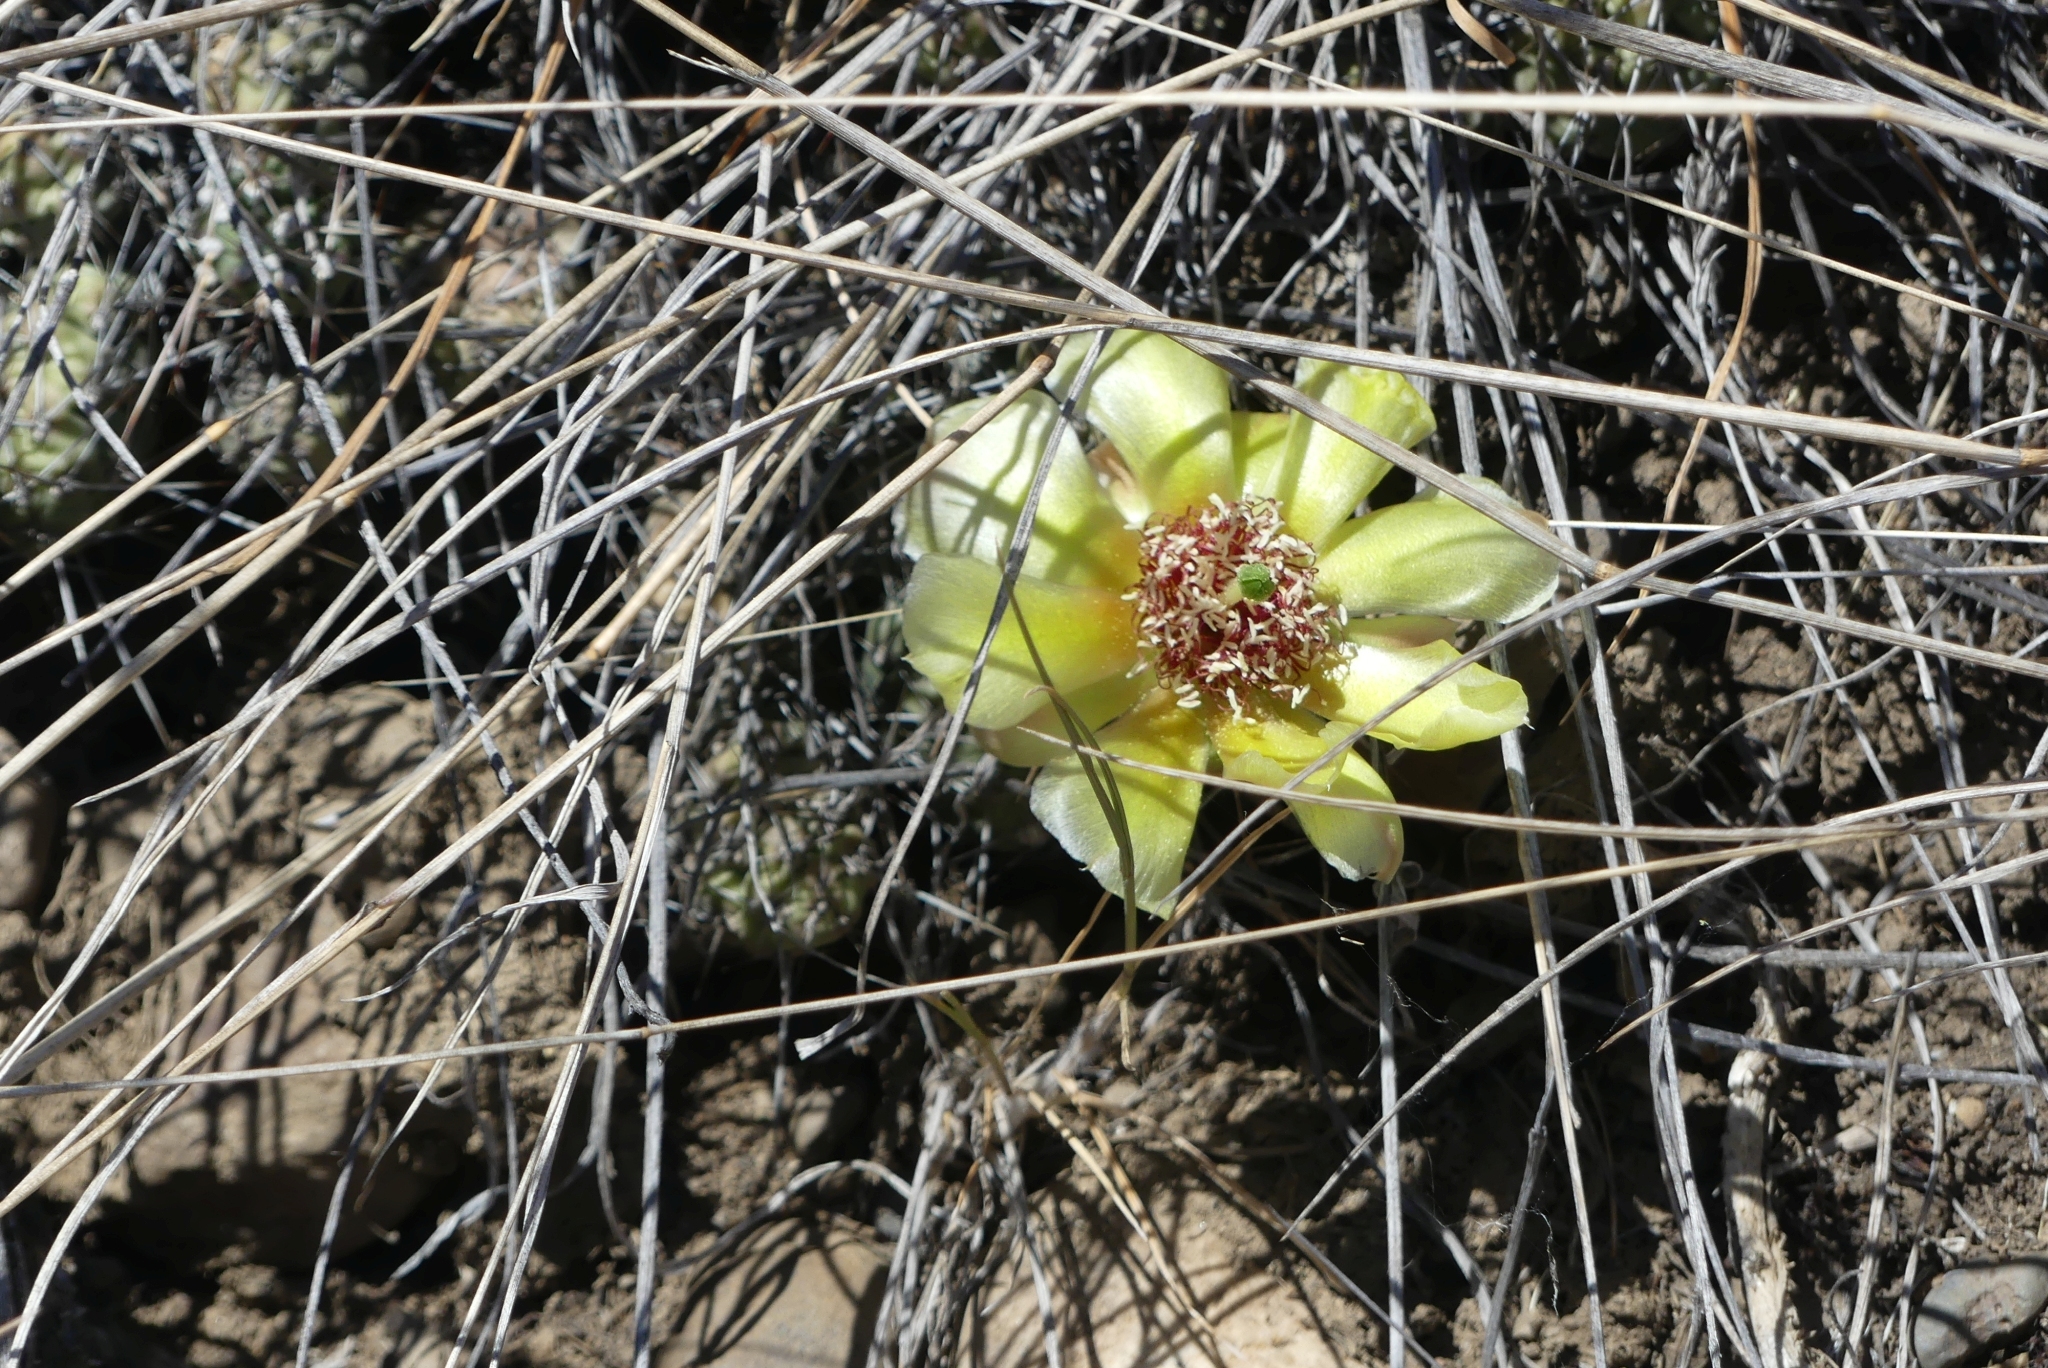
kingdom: Plantae
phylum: Tracheophyta
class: Magnoliopsida
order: Caryophyllales
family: Cactaceae
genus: Opuntia
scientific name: Opuntia fragilis
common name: Brittle cactus
